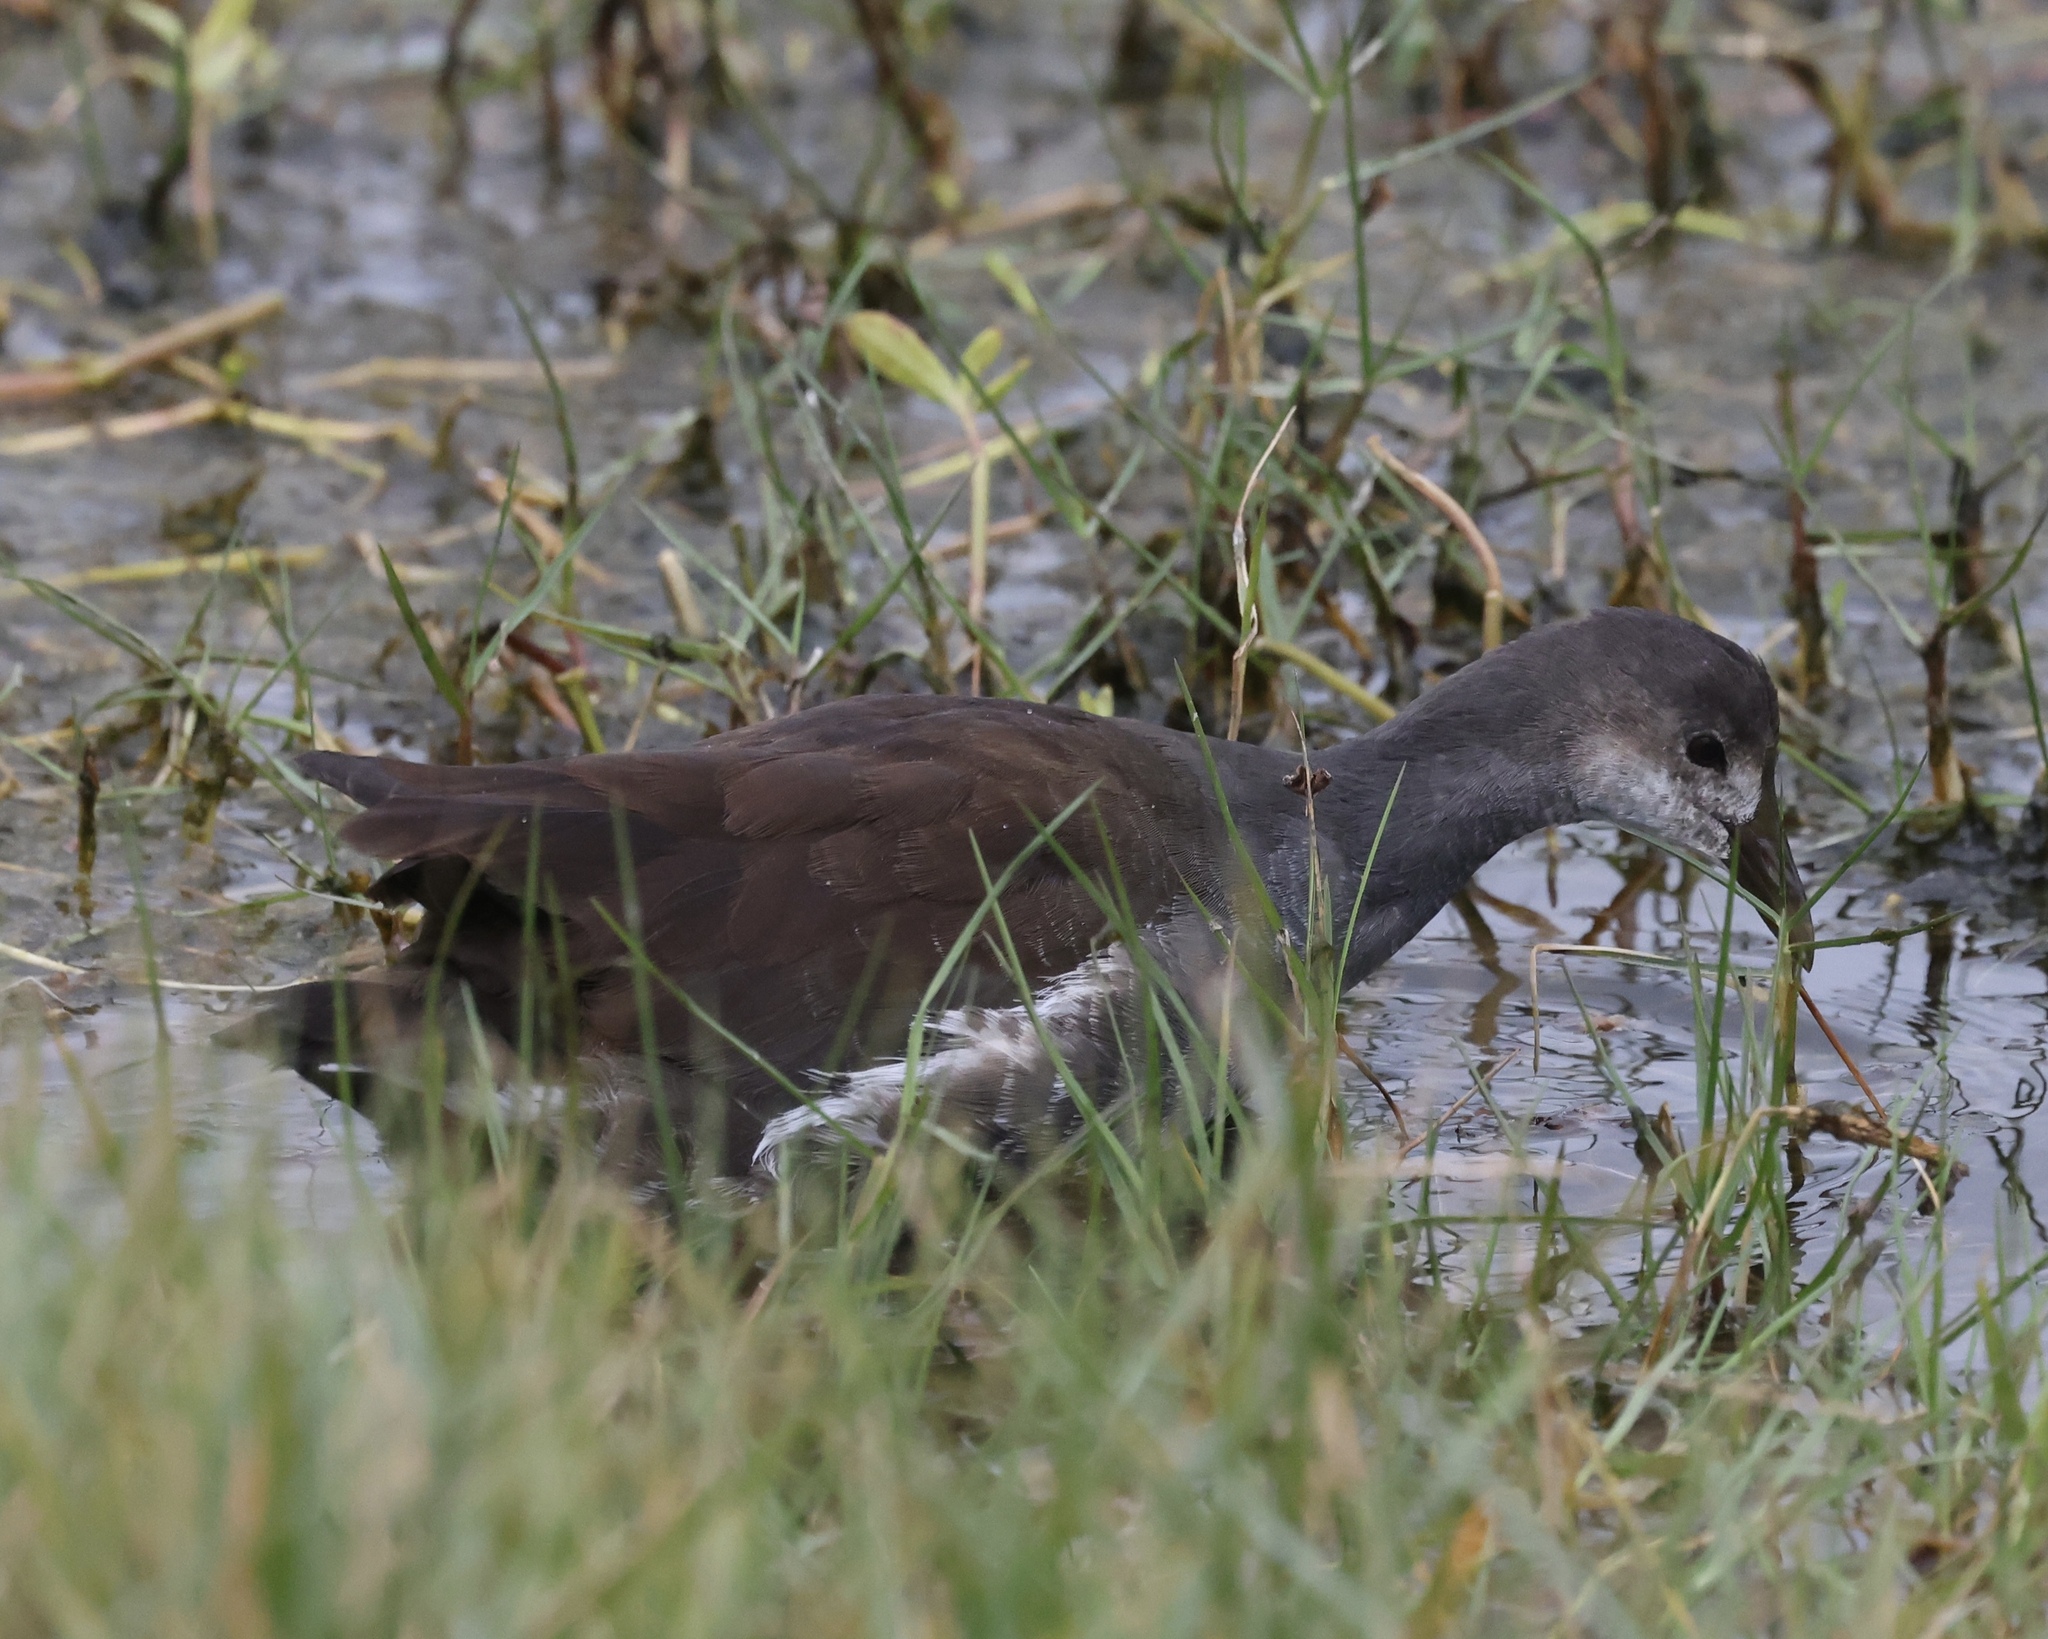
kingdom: Animalia
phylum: Chordata
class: Aves
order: Gruiformes
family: Rallidae
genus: Gallinula
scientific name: Gallinula chloropus
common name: Common moorhen
